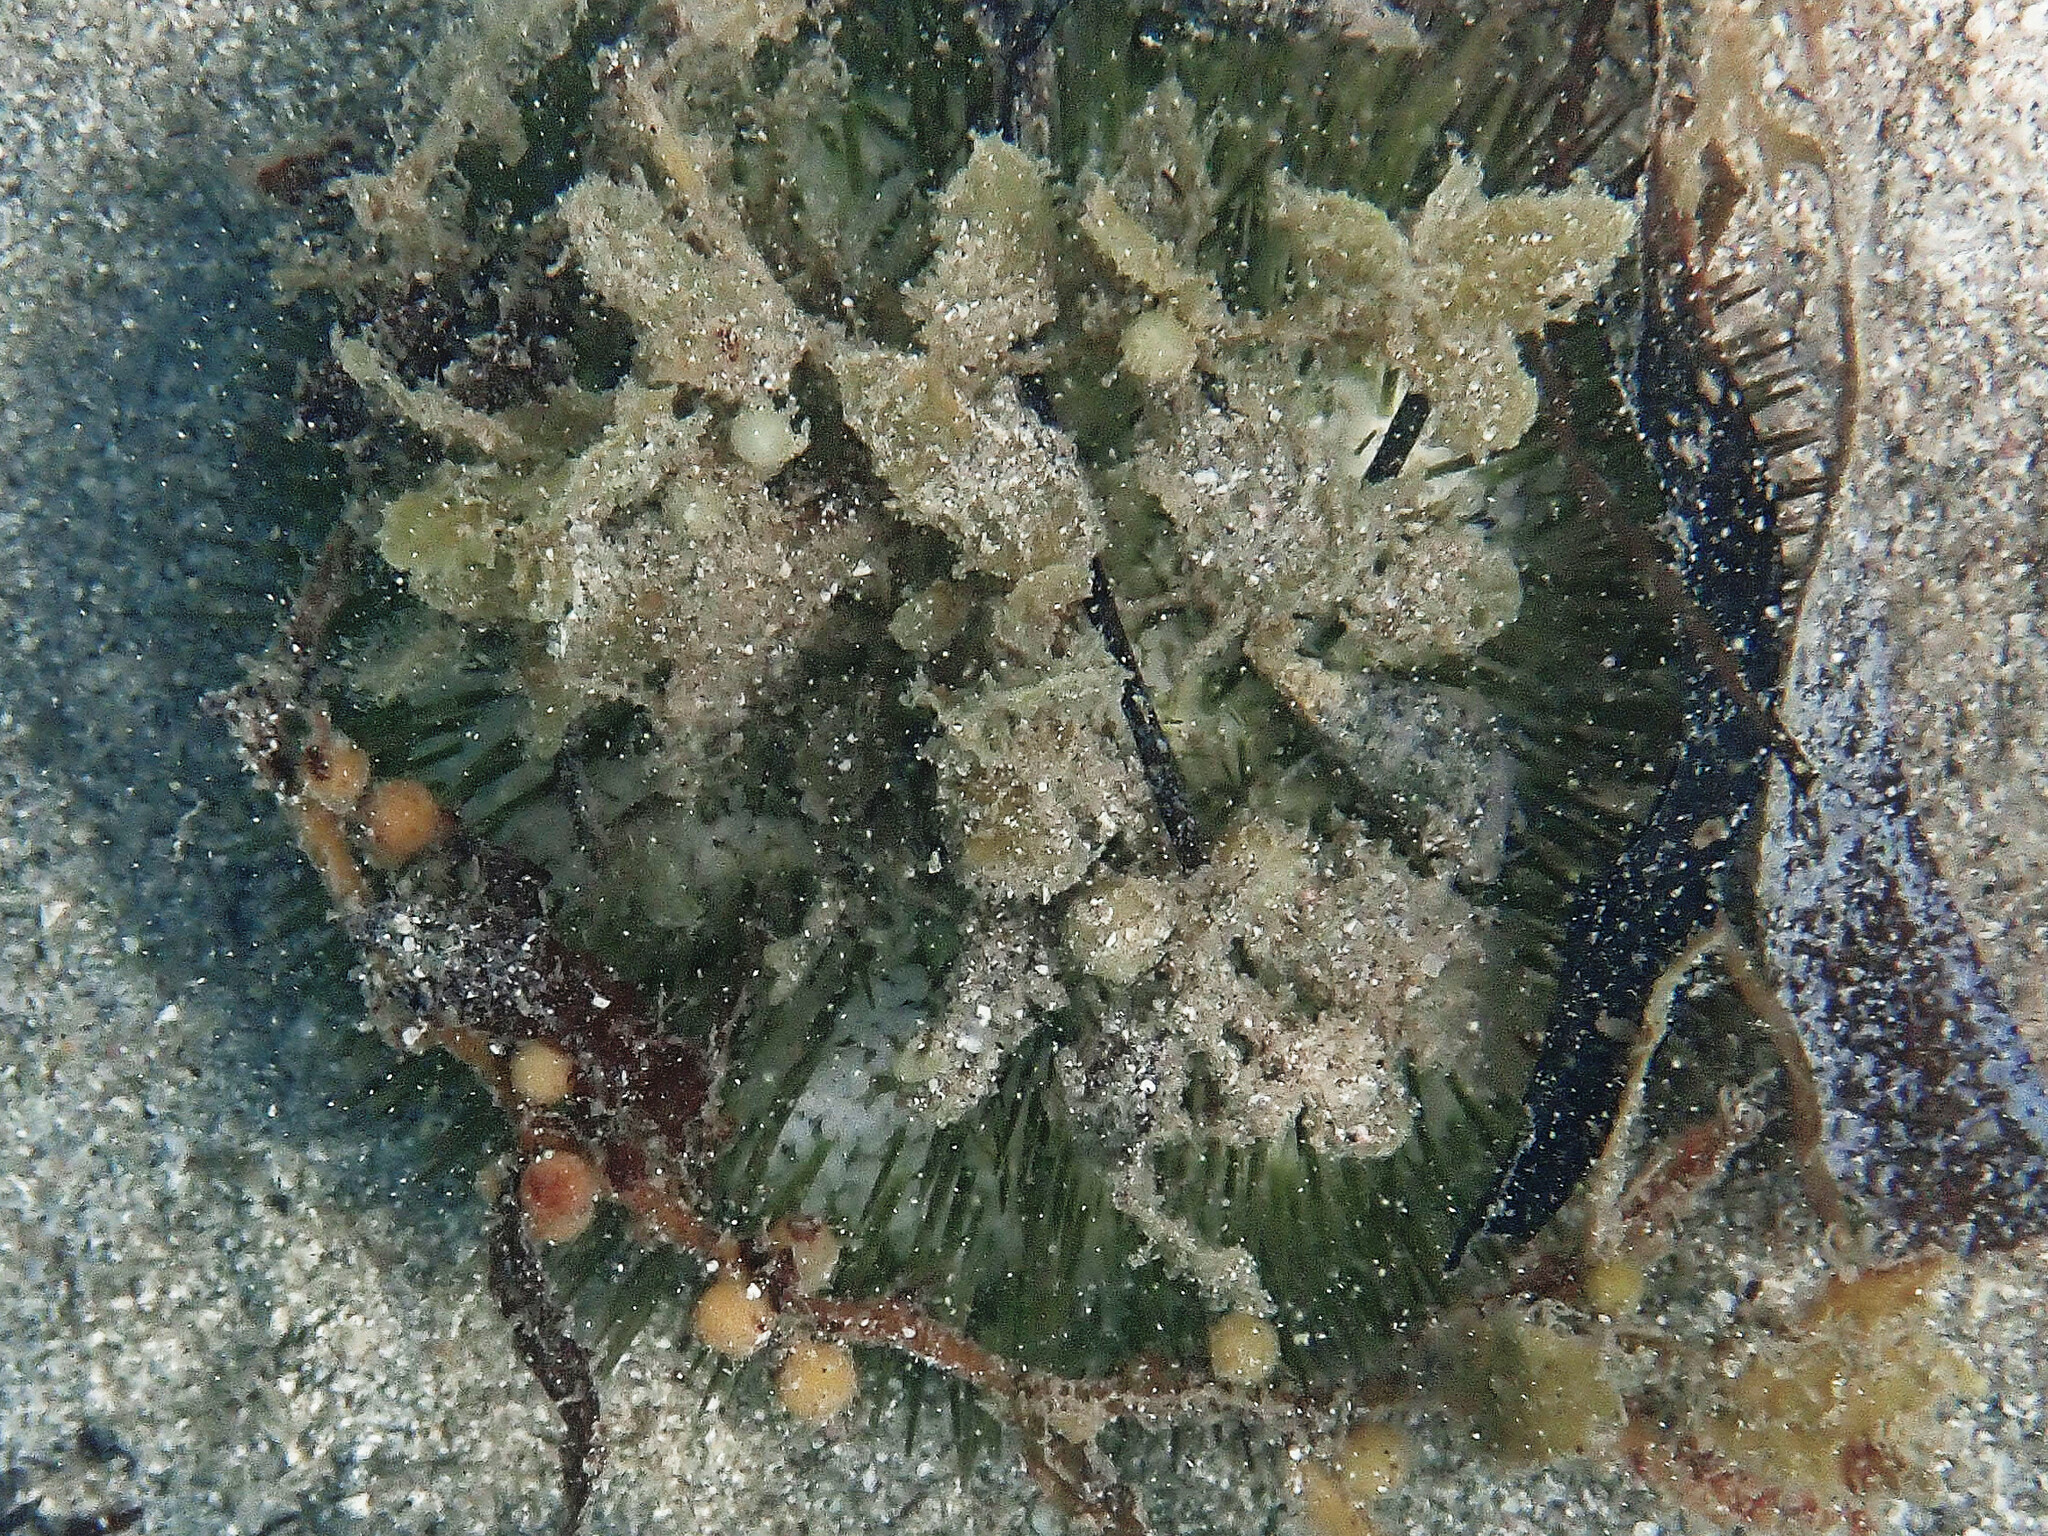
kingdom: Animalia
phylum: Echinodermata
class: Echinoidea
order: Camarodonta
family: Toxopneustidae
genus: Lytechinus
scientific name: Lytechinus variegatus
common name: Variegated urchin
